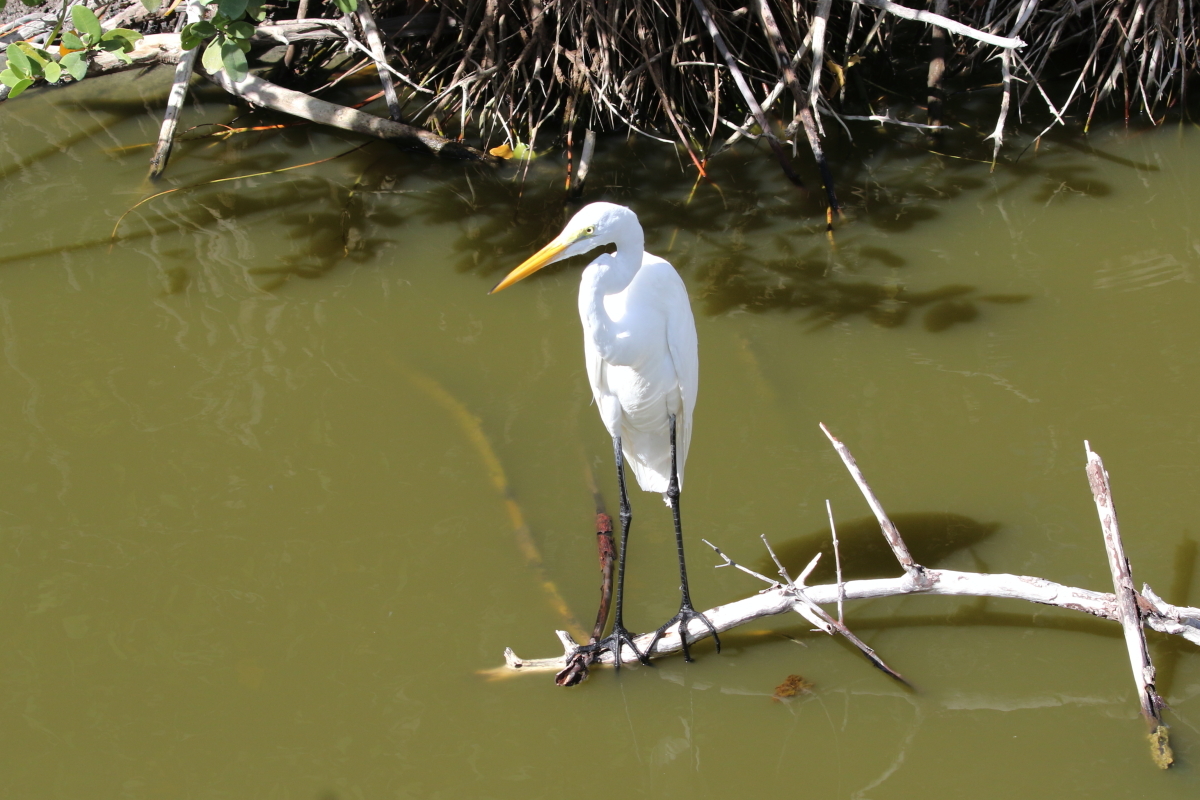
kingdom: Animalia
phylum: Chordata
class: Aves
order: Pelecaniformes
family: Ardeidae
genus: Ardea
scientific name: Ardea alba
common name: Great egret
